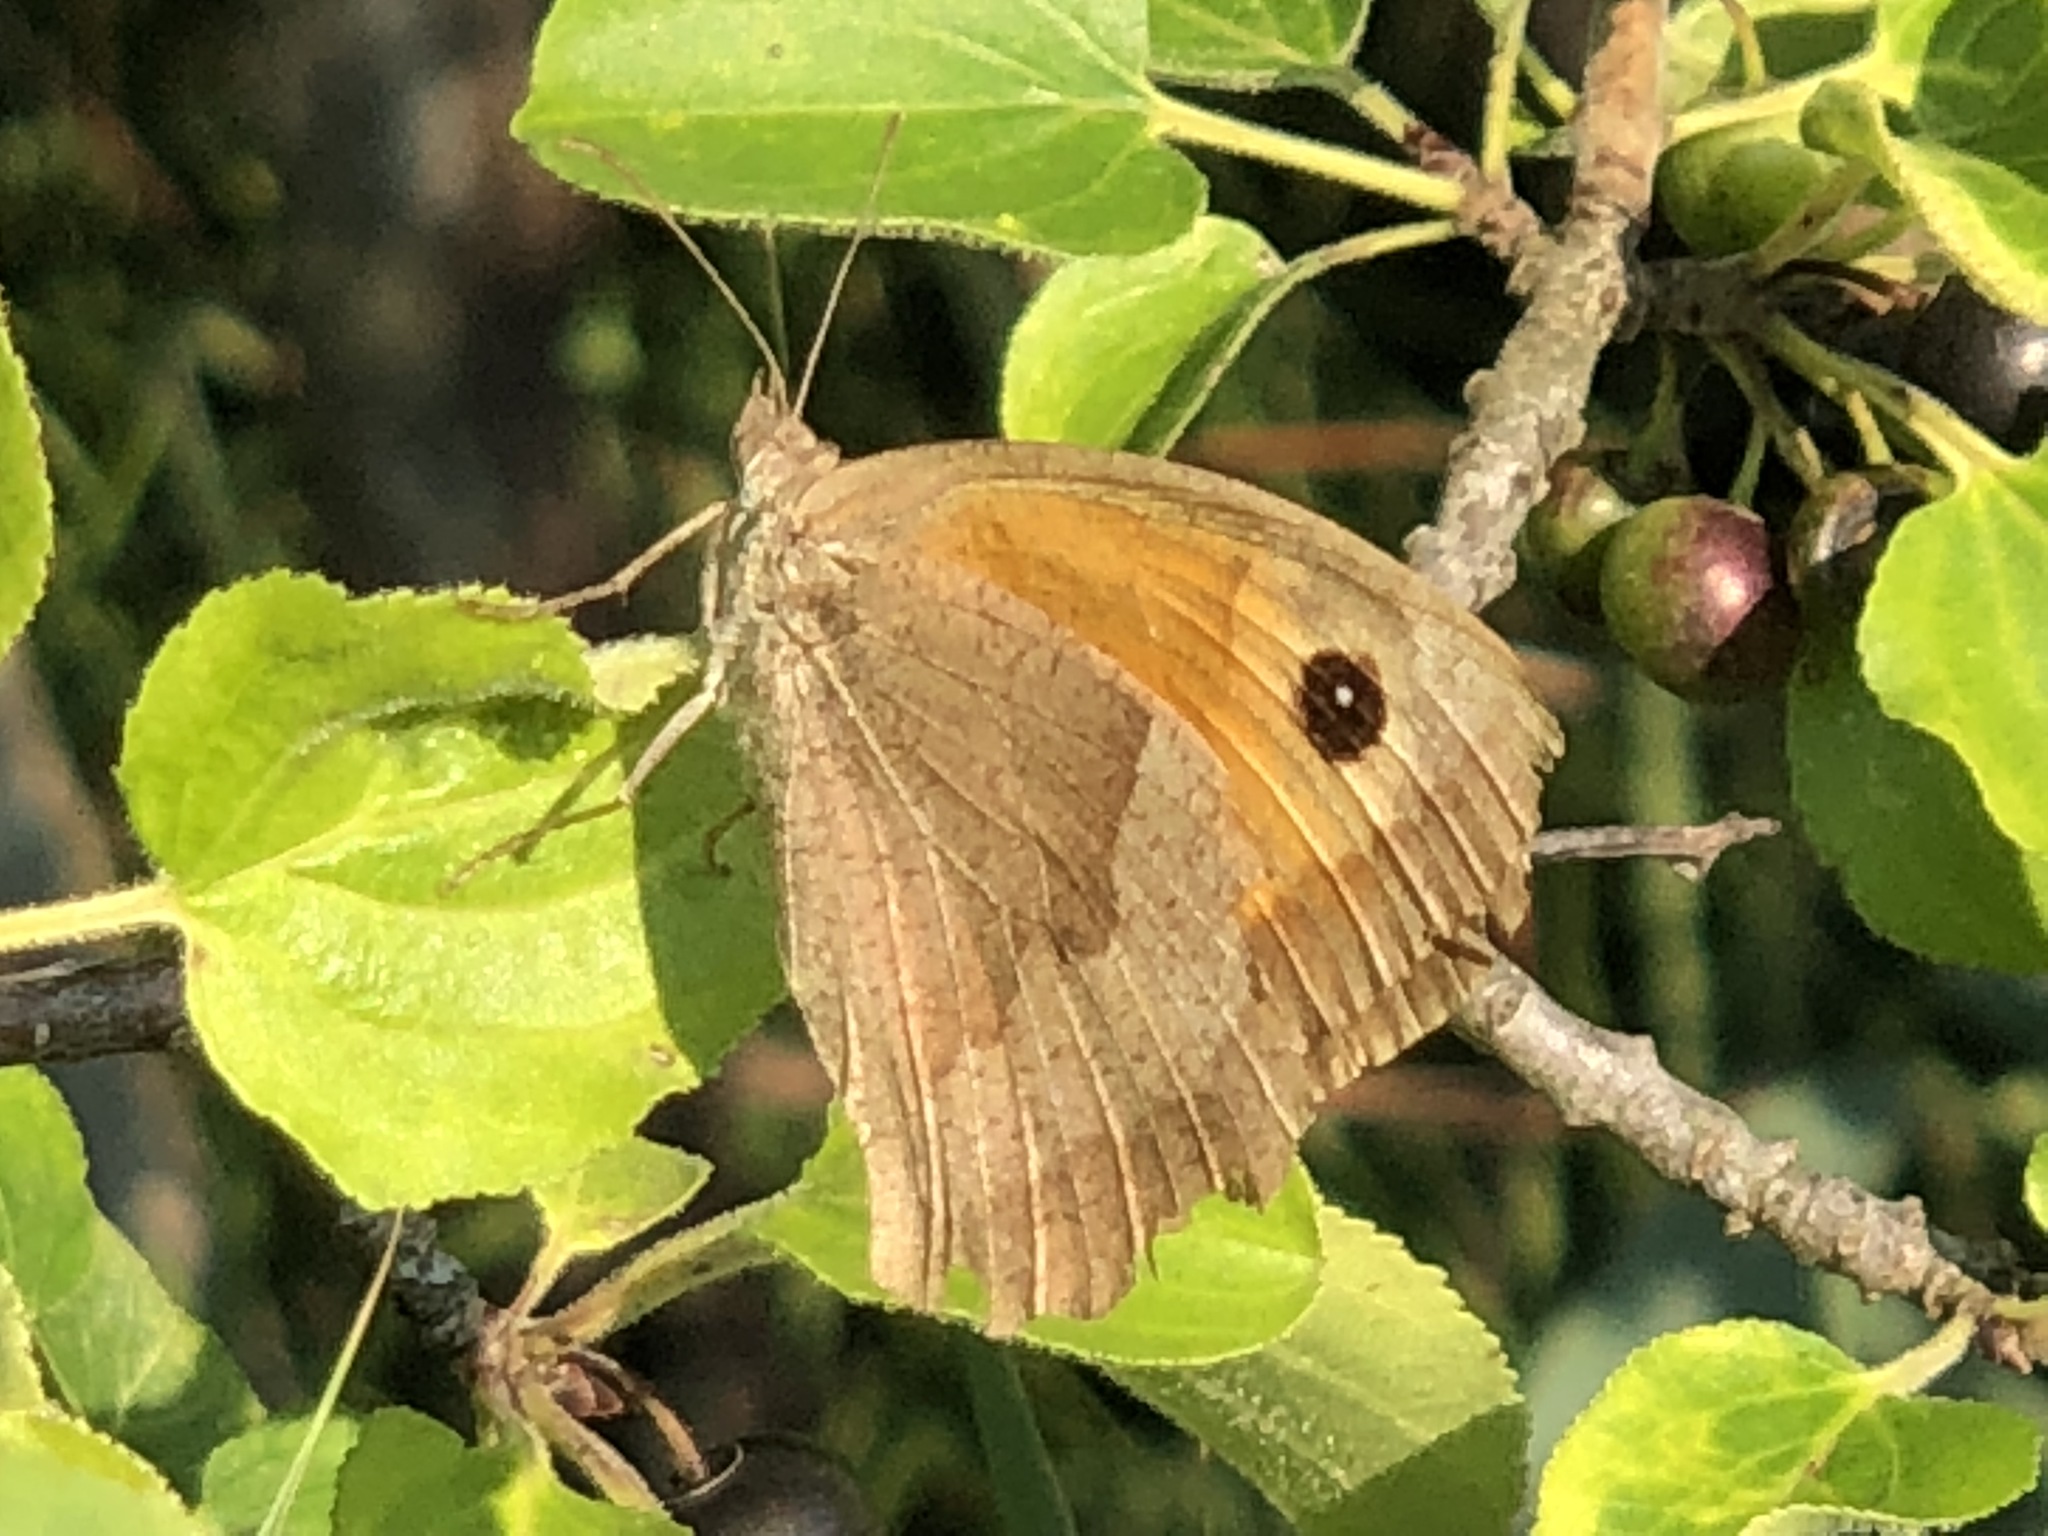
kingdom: Animalia
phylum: Arthropoda
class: Insecta
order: Lepidoptera
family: Nymphalidae
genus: Maniola
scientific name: Maniola jurtina
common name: Meadow brown
